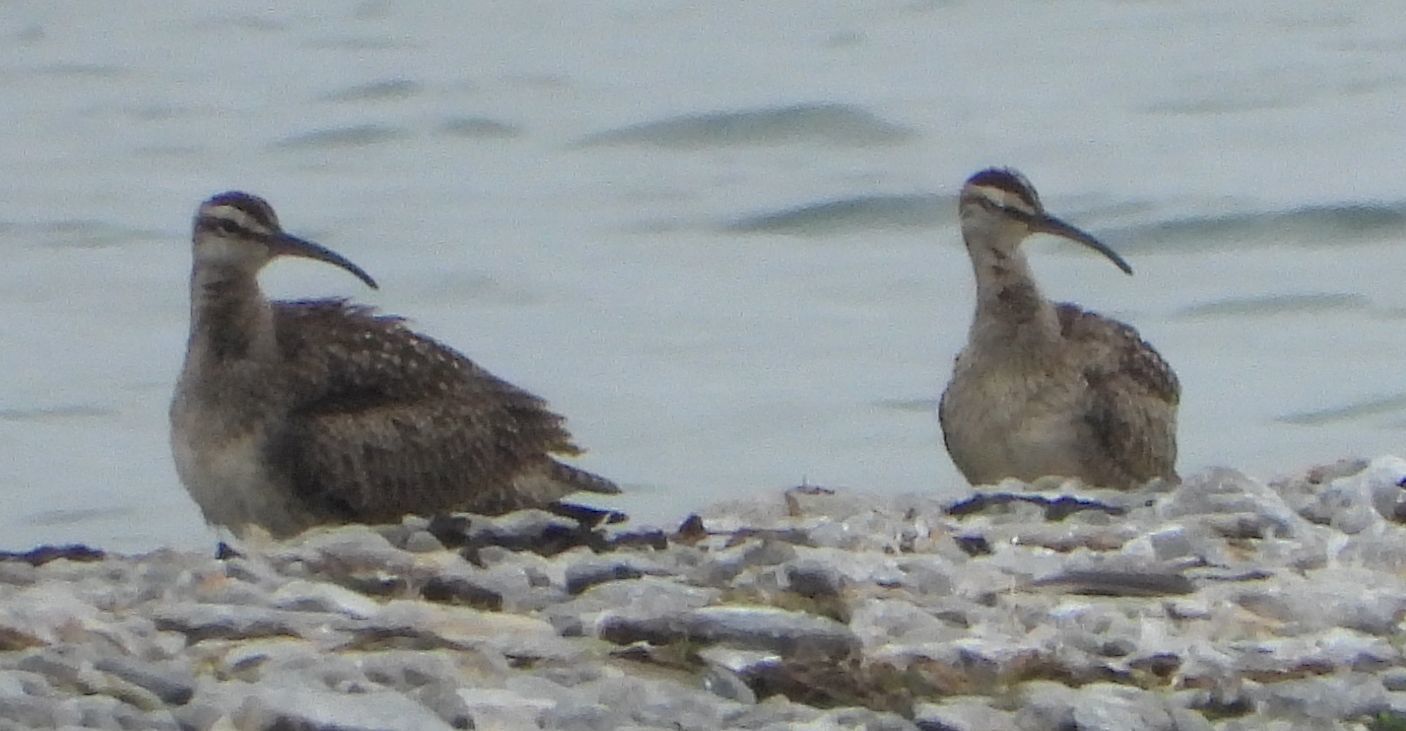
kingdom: Animalia
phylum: Chordata
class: Aves
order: Charadriiformes
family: Scolopacidae
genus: Numenius
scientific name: Numenius phaeopus
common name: Whimbrel
